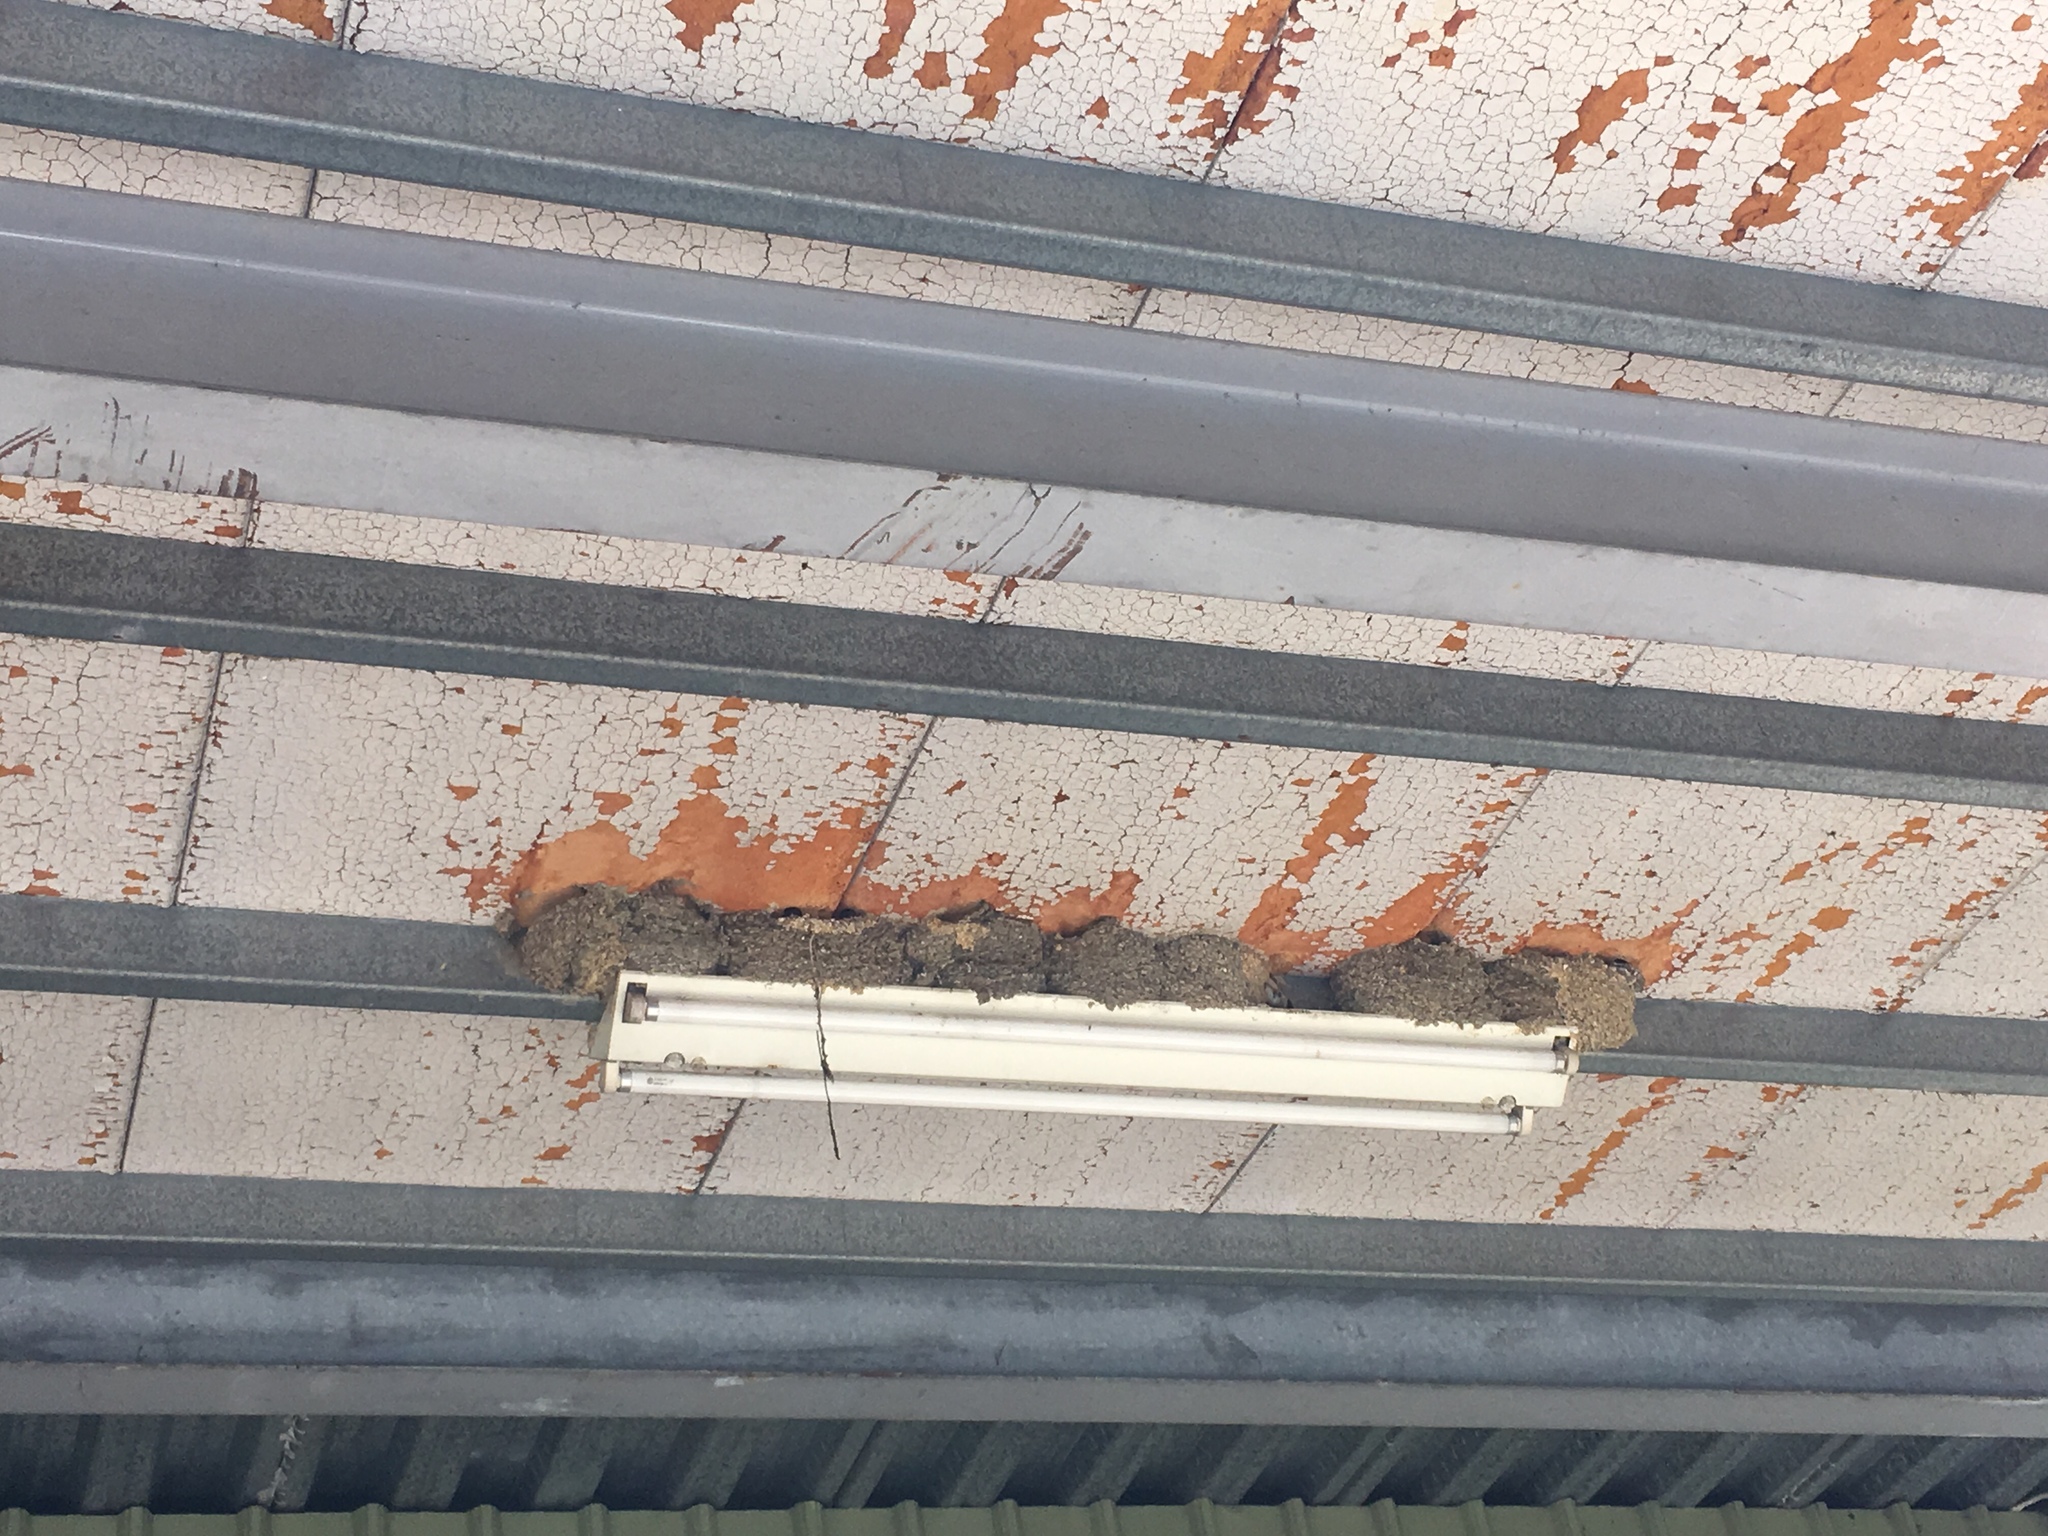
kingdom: Animalia
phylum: Chordata
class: Aves
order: Passeriformes
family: Hirundinidae
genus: Delichon
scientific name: Delichon dasypus
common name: Asian house martin
